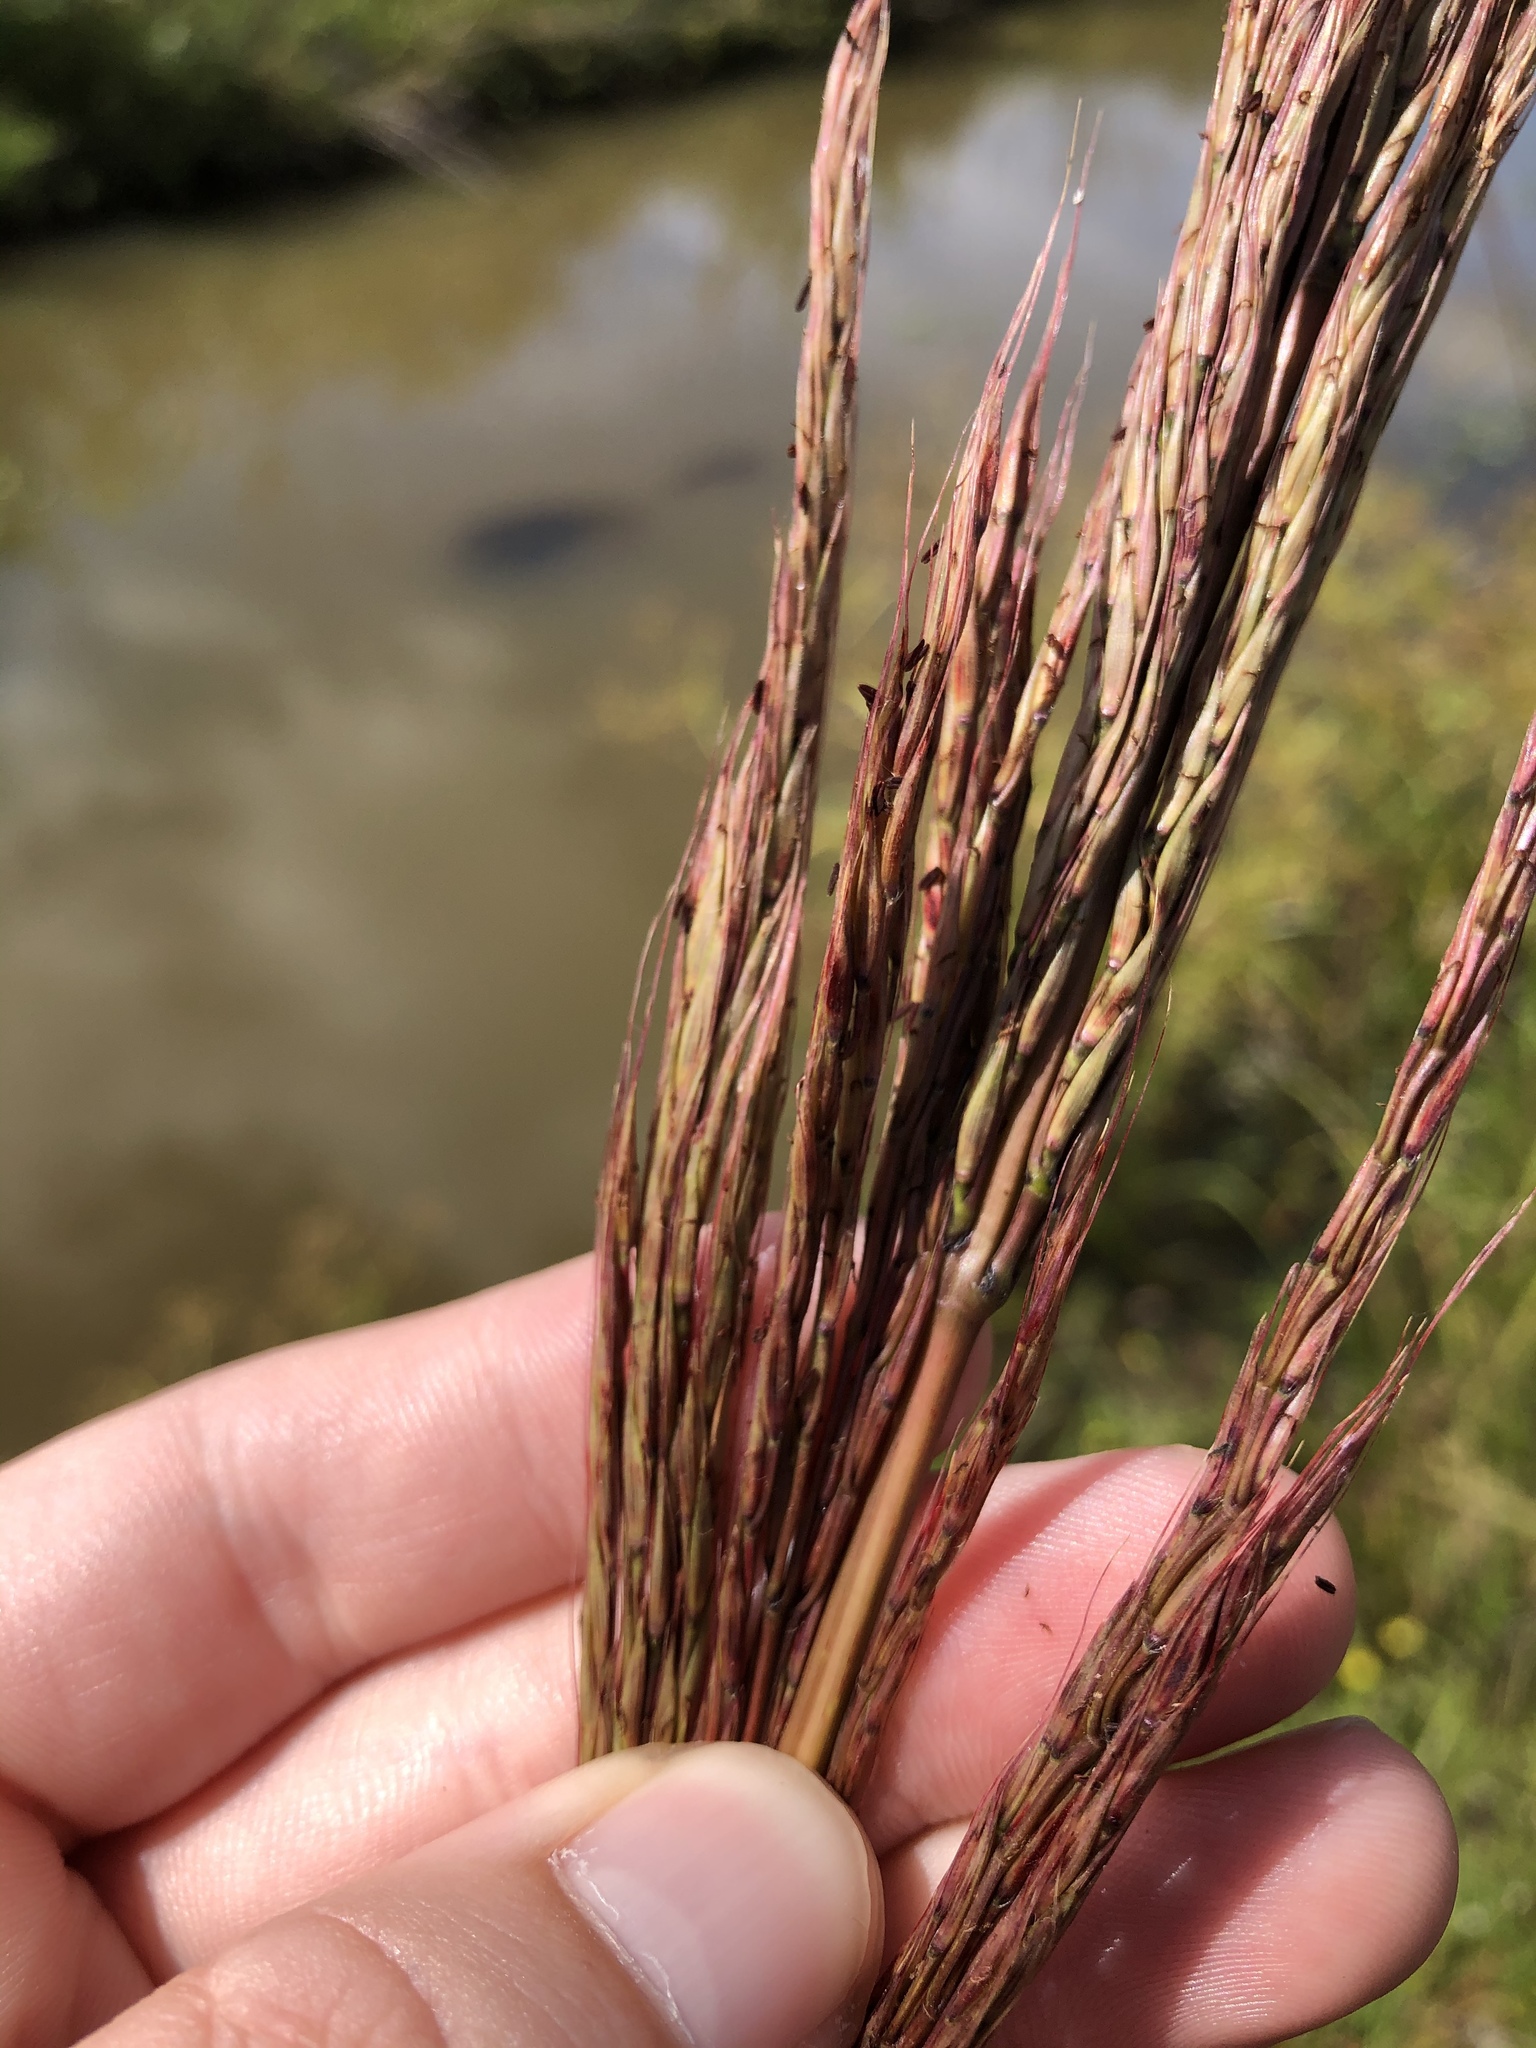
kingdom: Plantae
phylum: Tracheophyta
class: Liliopsida
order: Poales
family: Poaceae
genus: Erianthus
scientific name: Erianthus strictus
